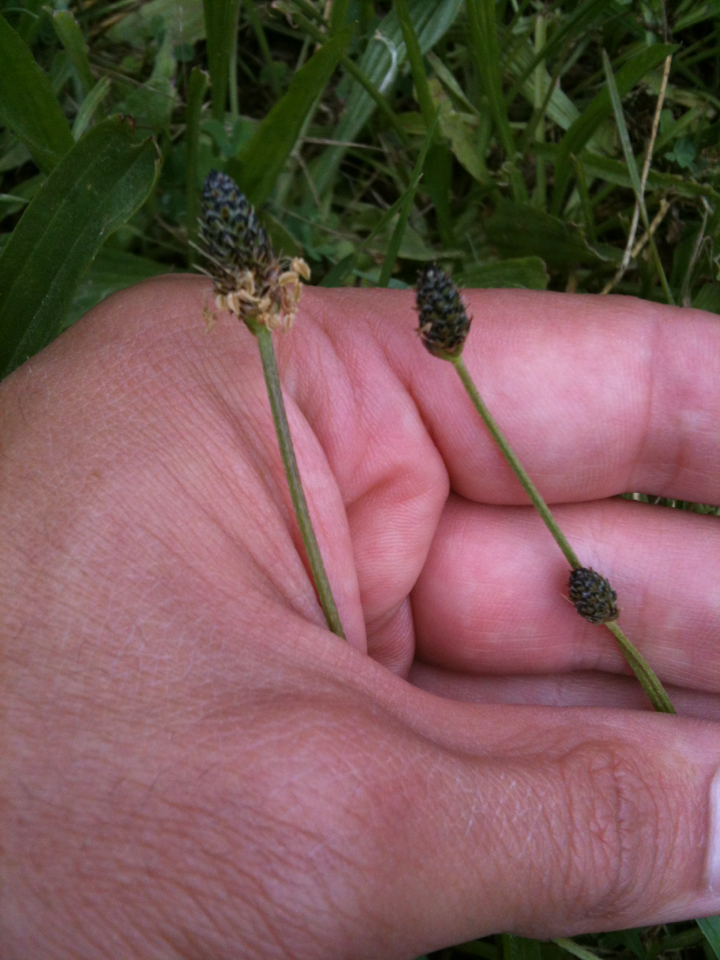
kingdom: Plantae
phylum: Tracheophyta
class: Magnoliopsida
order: Lamiales
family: Plantaginaceae
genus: Plantago
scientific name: Plantago lanceolata
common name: Ribwort plantain
